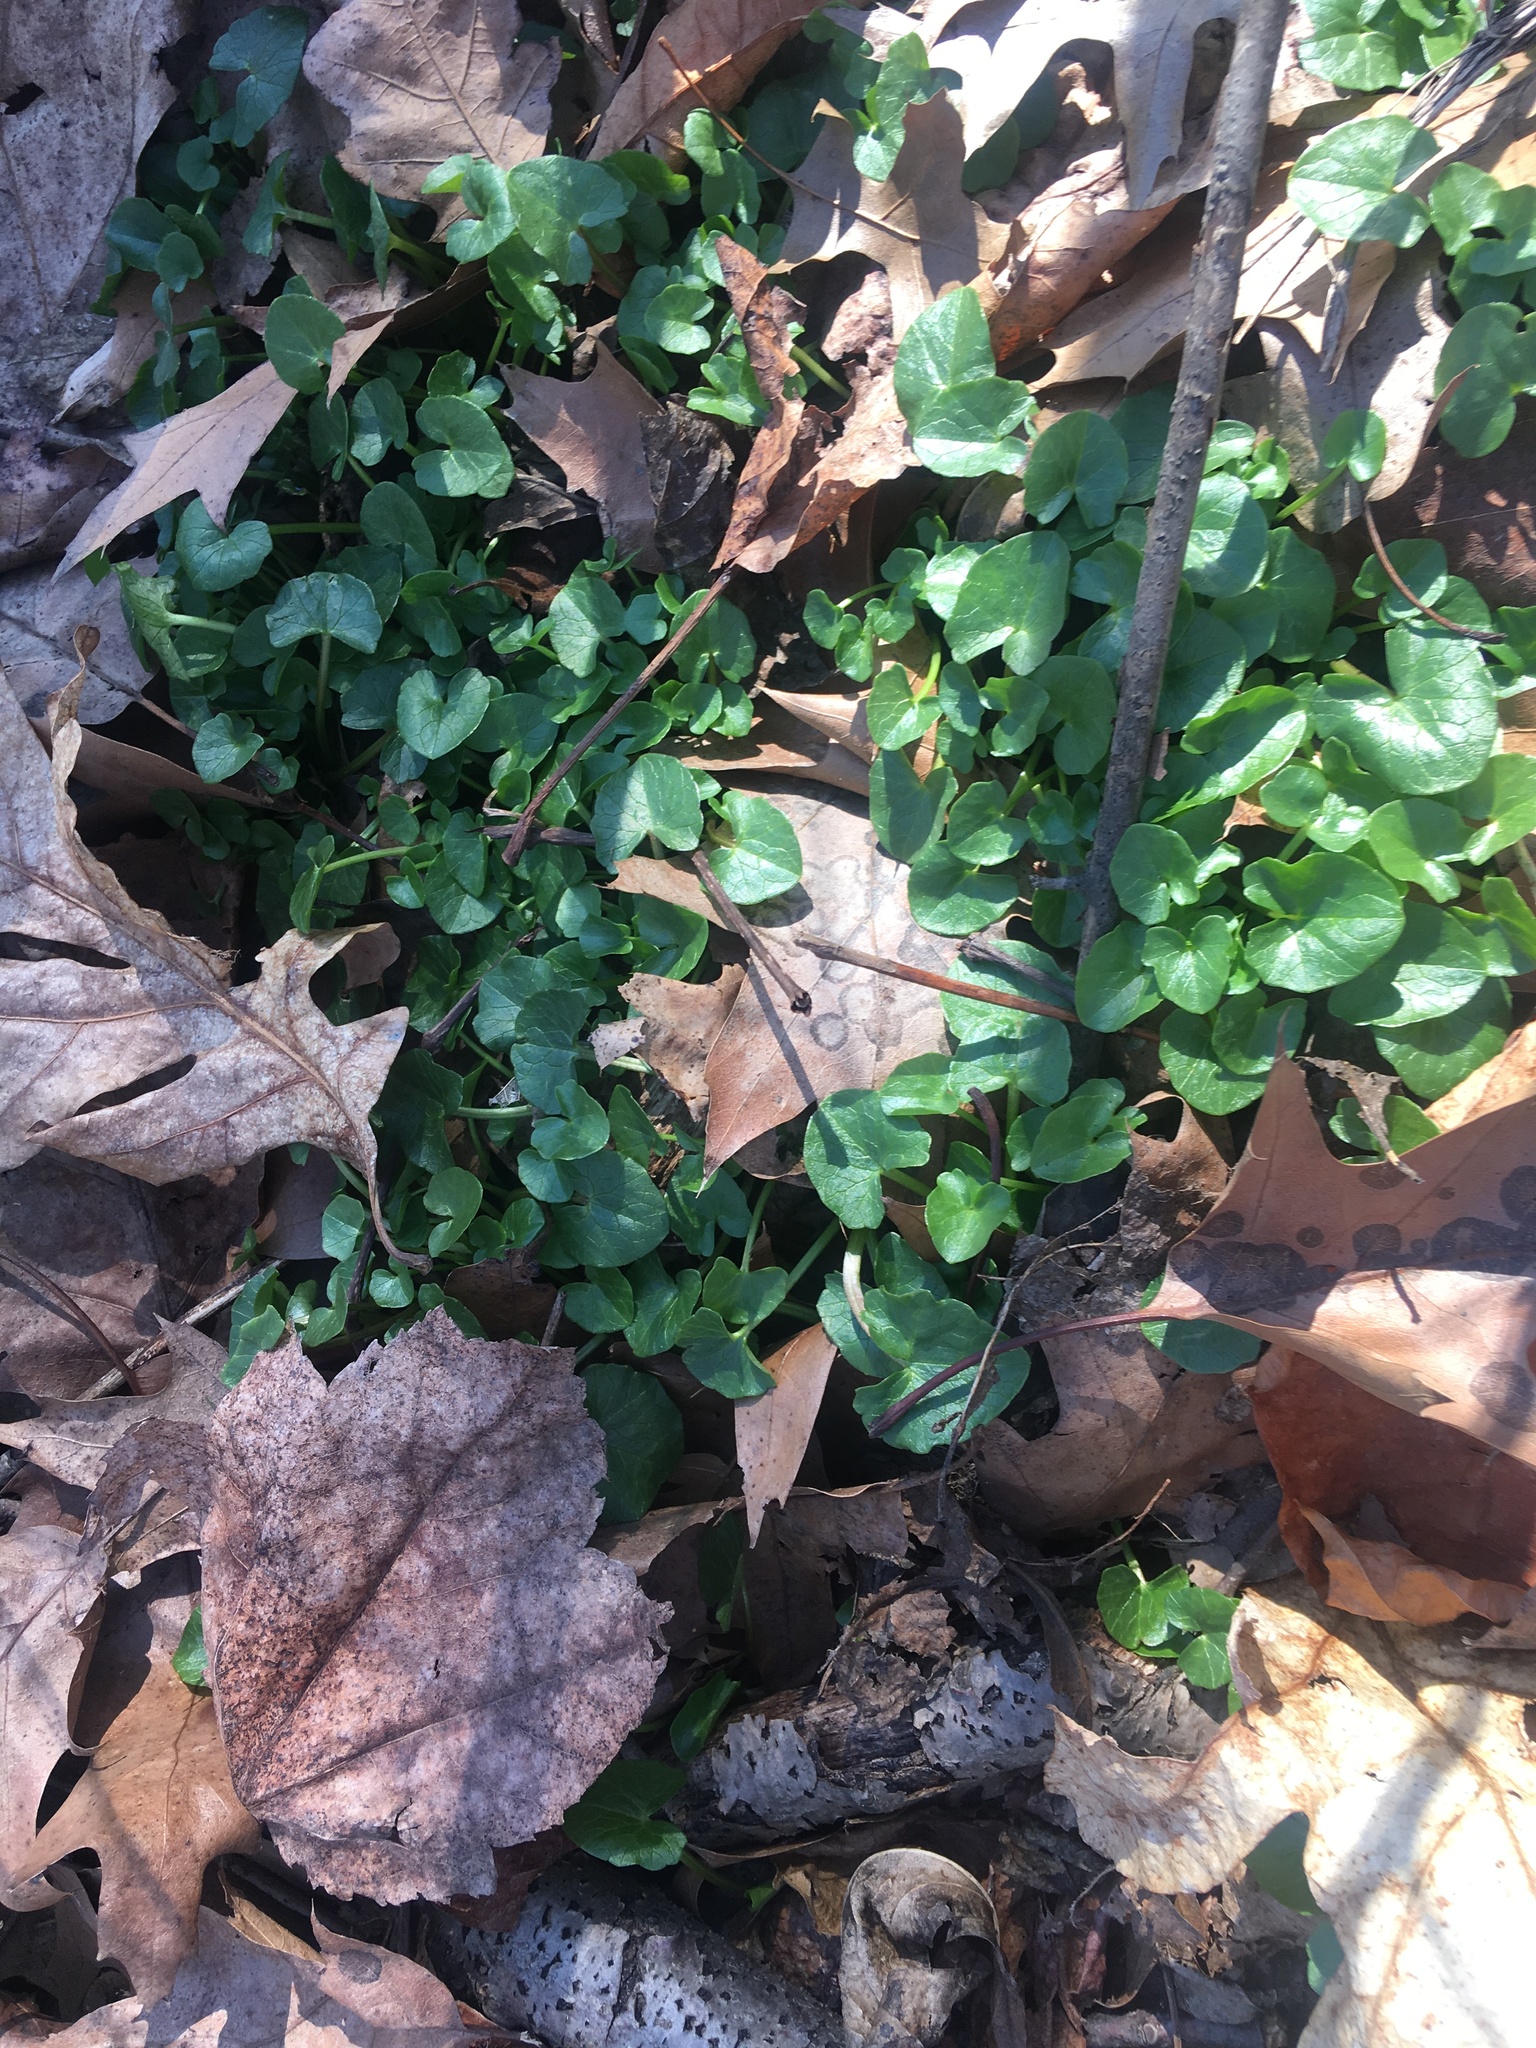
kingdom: Plantae
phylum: Tracheophyta
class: Magnoliopsida
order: Ranunculales
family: Ranunculaceae
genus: Ficaria
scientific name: Ficaria verna
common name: Lesser celandine
